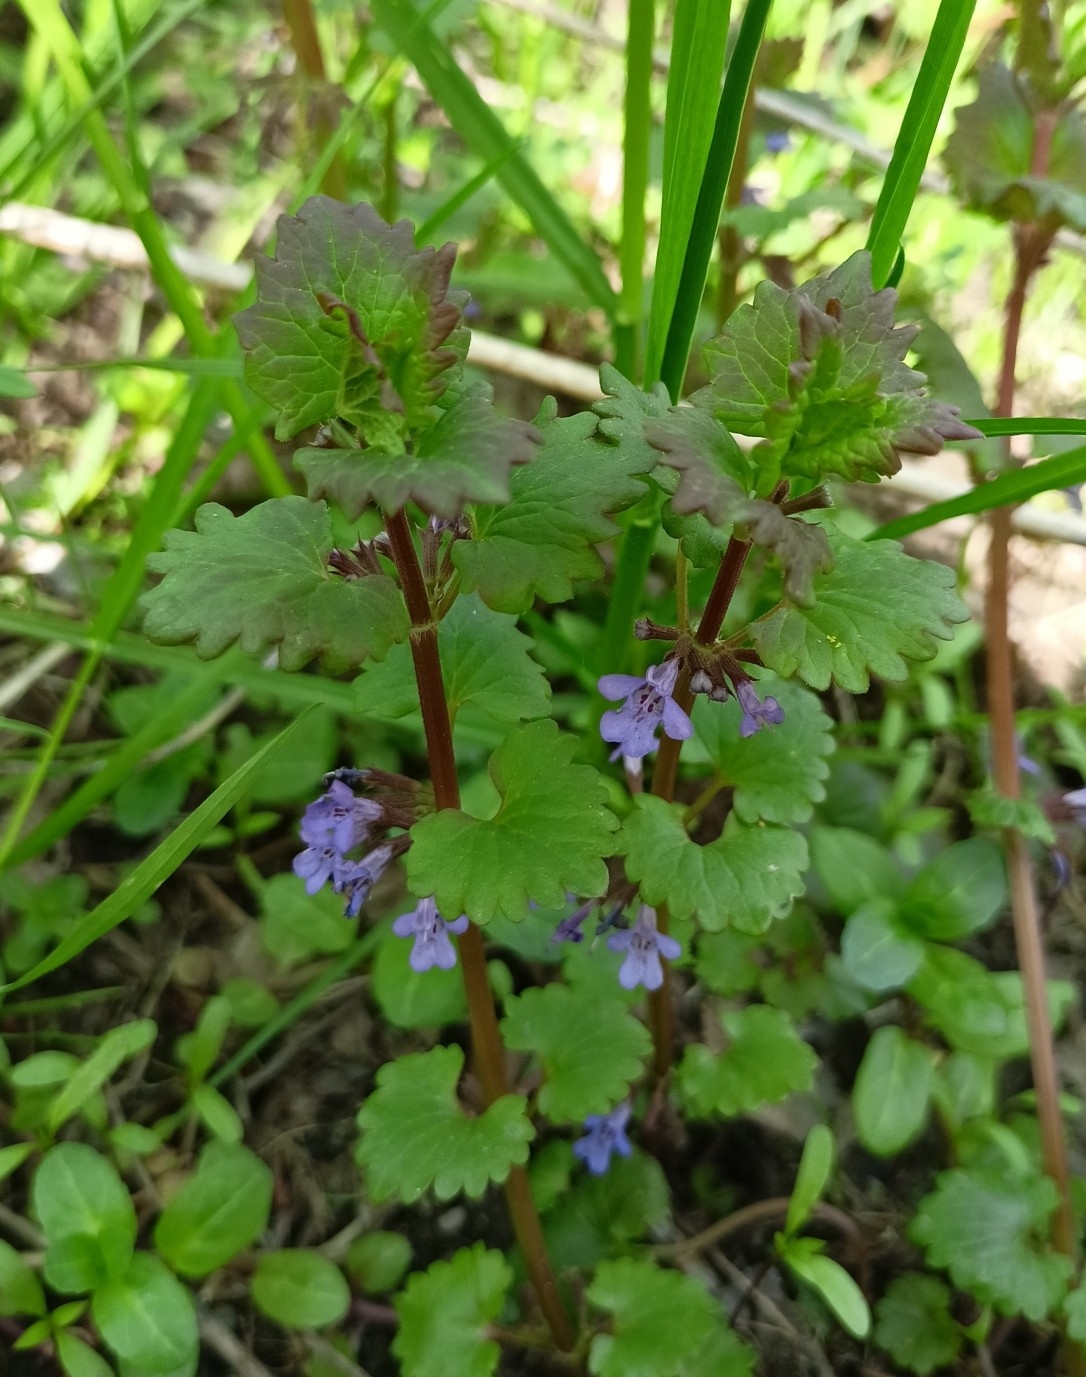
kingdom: Plantae
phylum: Tracheophyta
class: Magnoliopsida
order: Lamiales
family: Lamiaceae
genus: Glechoma
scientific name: Glechoma hederacea
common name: Ground ivy
